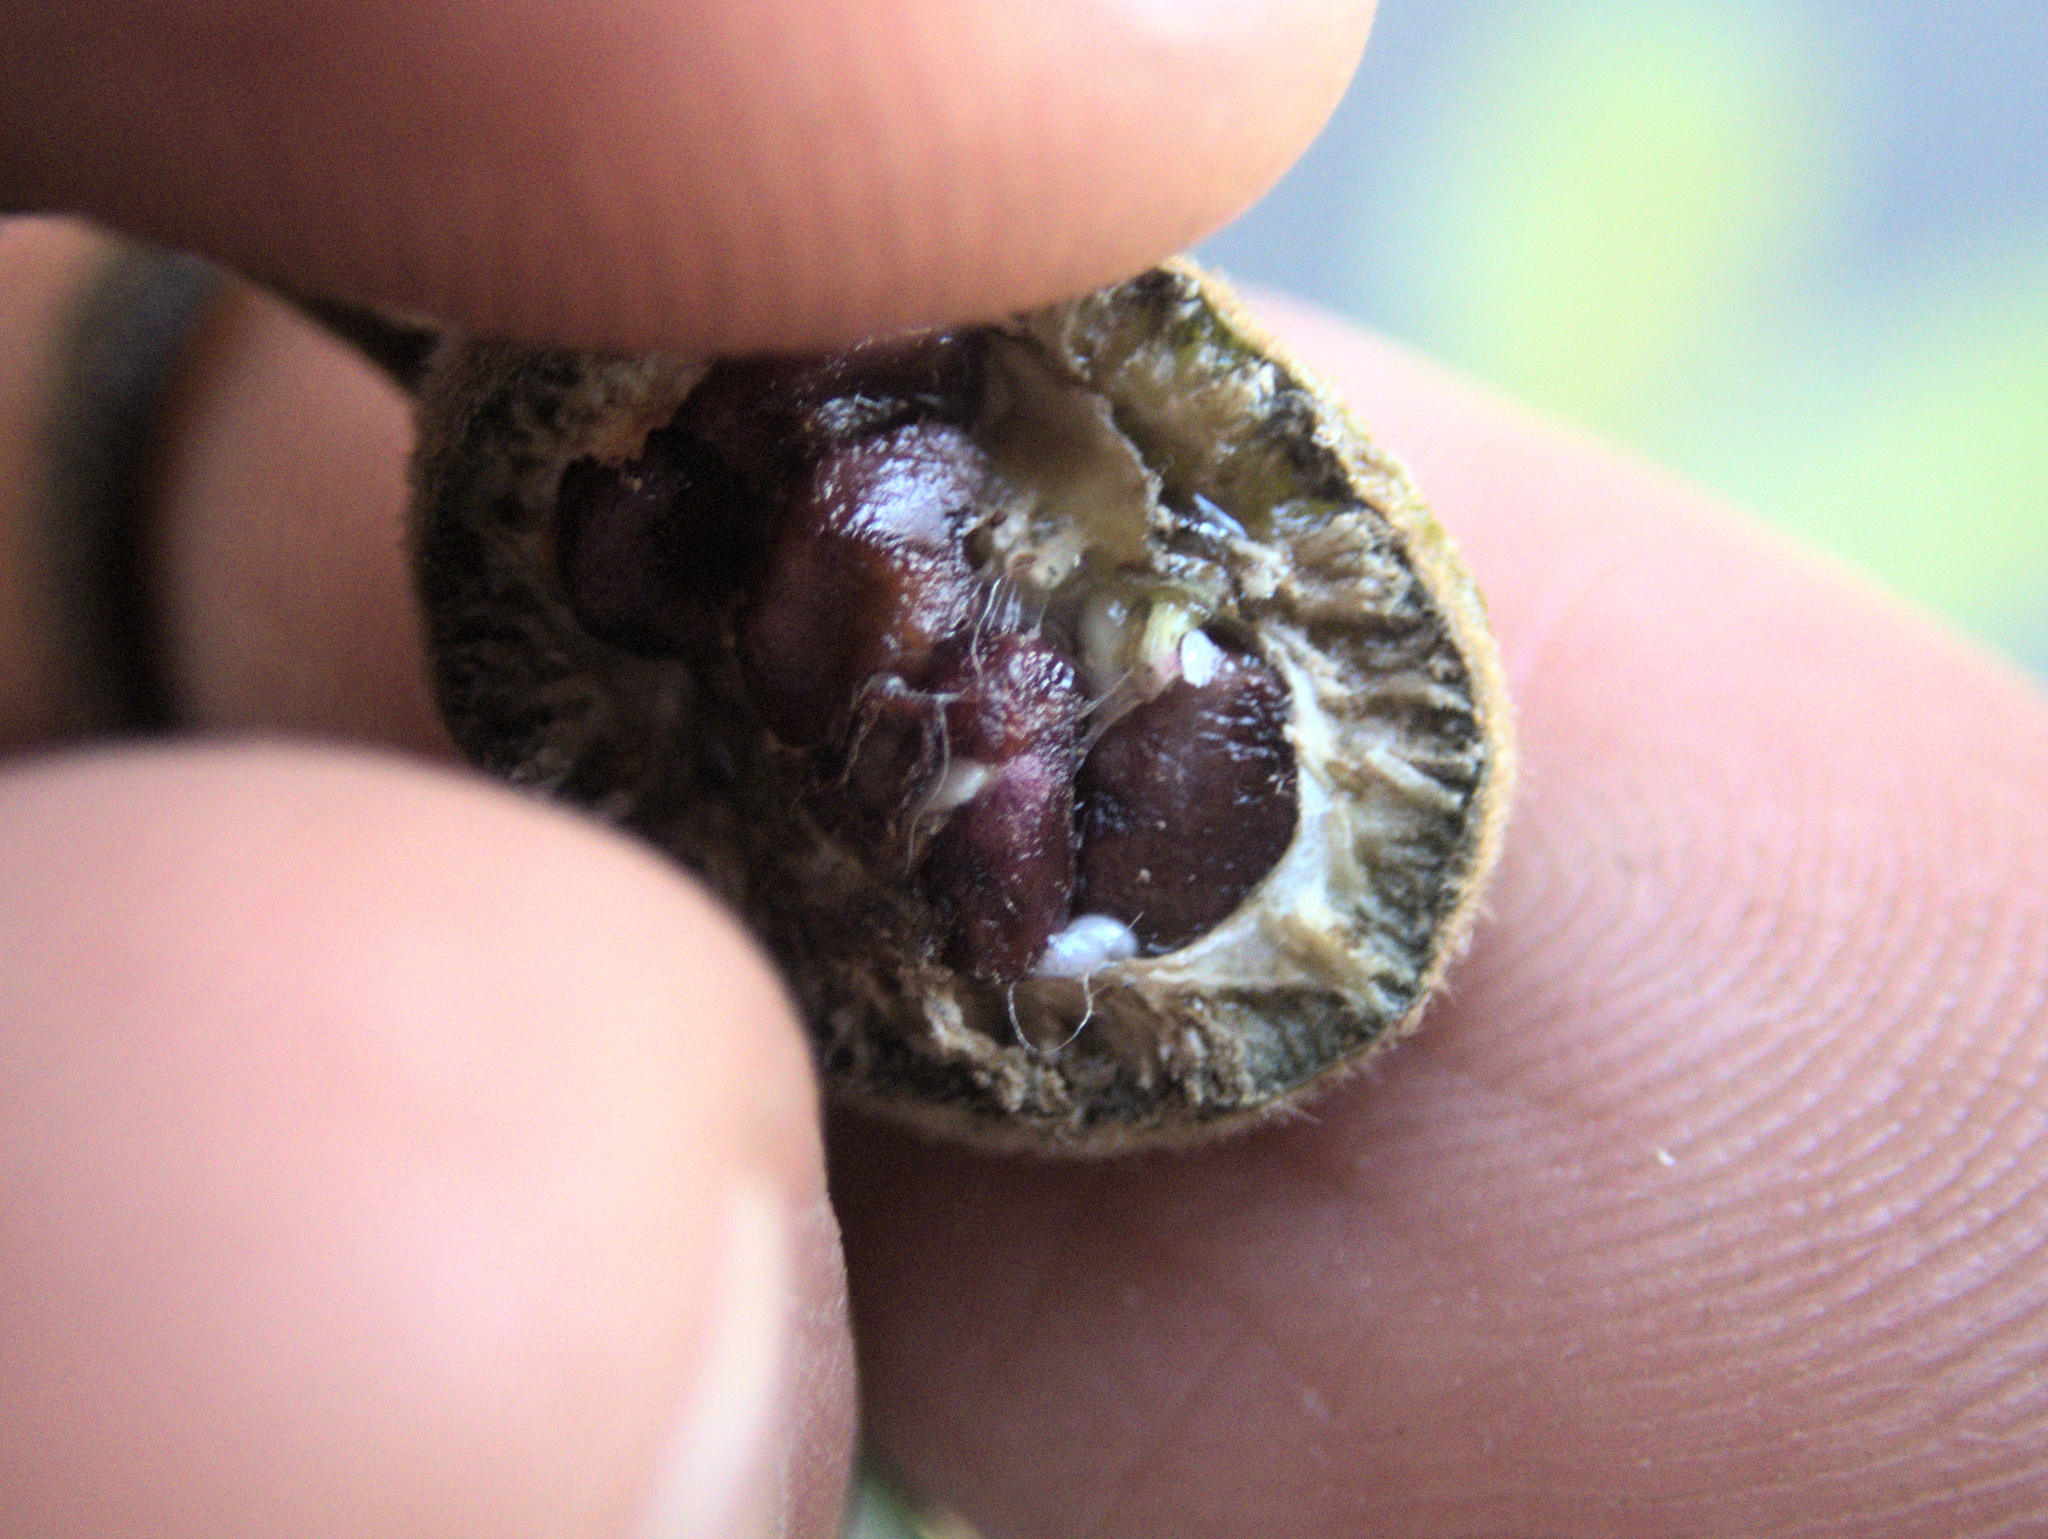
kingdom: Plantae
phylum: Tracheophyta
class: Magnoliopsida
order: Apiales
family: Pittosporaceae
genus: Pittosporum
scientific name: Pittosporum ellipticum
